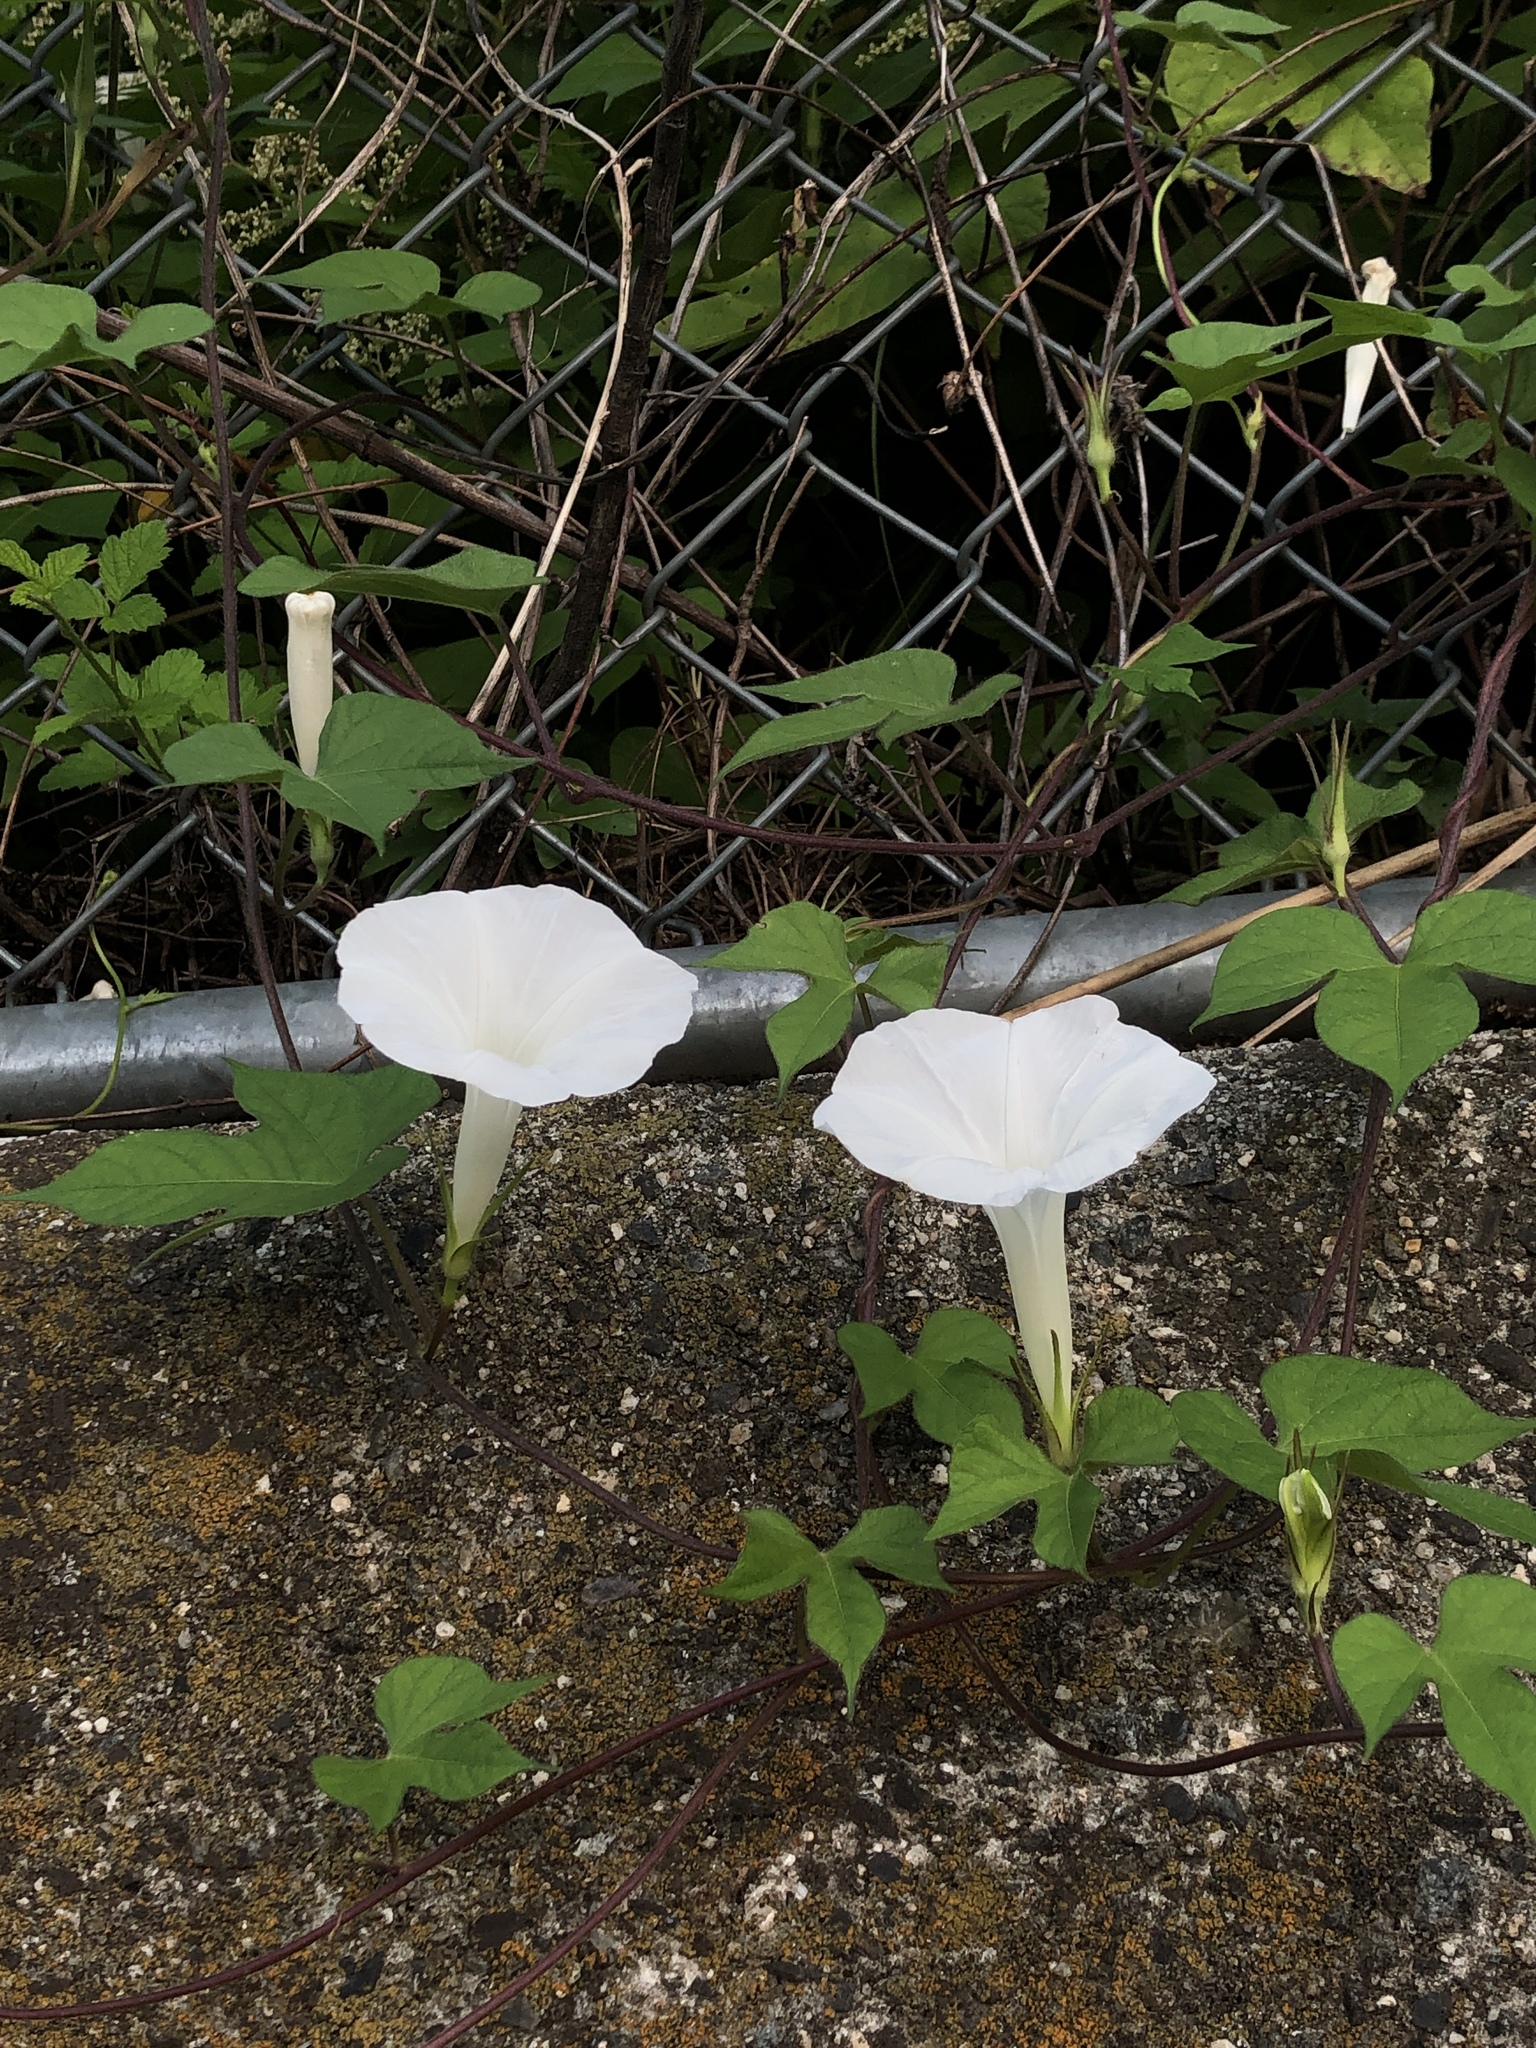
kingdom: Plantae
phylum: Tracheophyta
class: Magnoliopsida
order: Solanales
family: Convolvulaceae
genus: Ipomoea
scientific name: Ipomoea nil
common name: Japanese morning-glory
